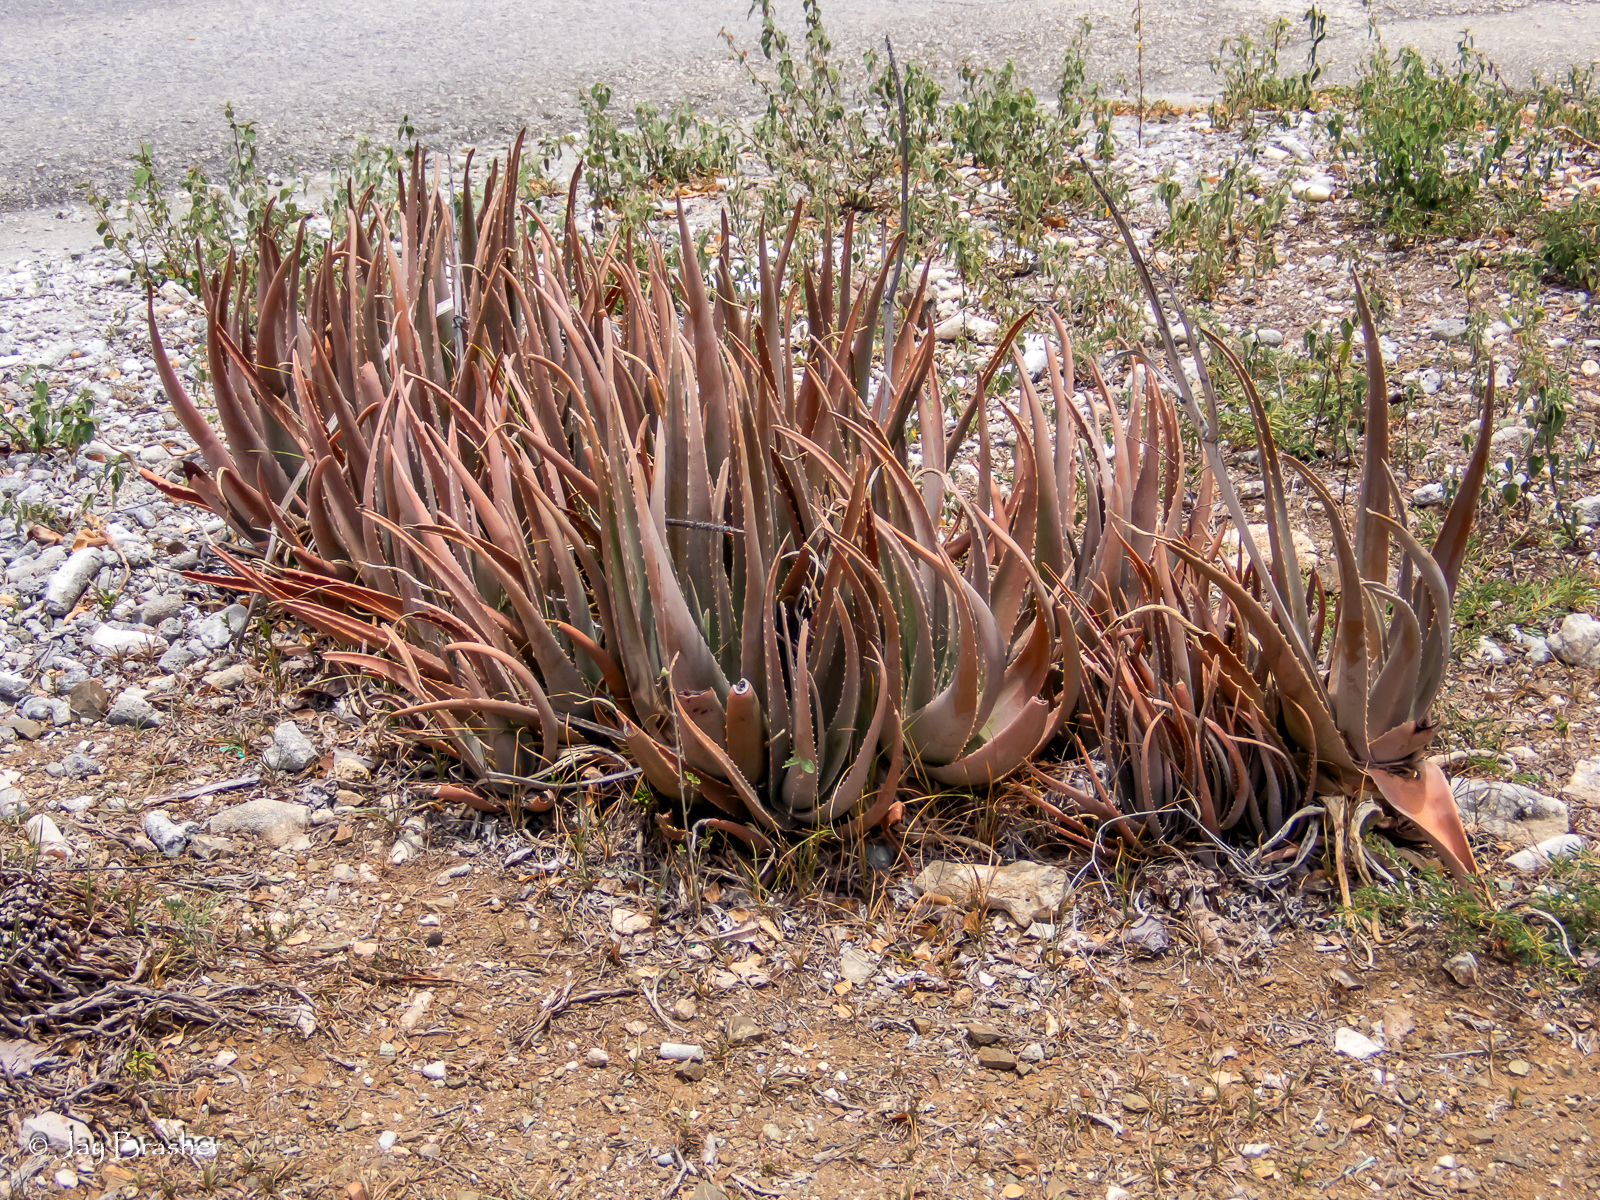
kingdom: Plantae
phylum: Tracheophyta
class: Liliopsida
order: Asparagales
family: Asphodelaceae
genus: Aloe
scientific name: Aloe vera
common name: Barbados aloe
